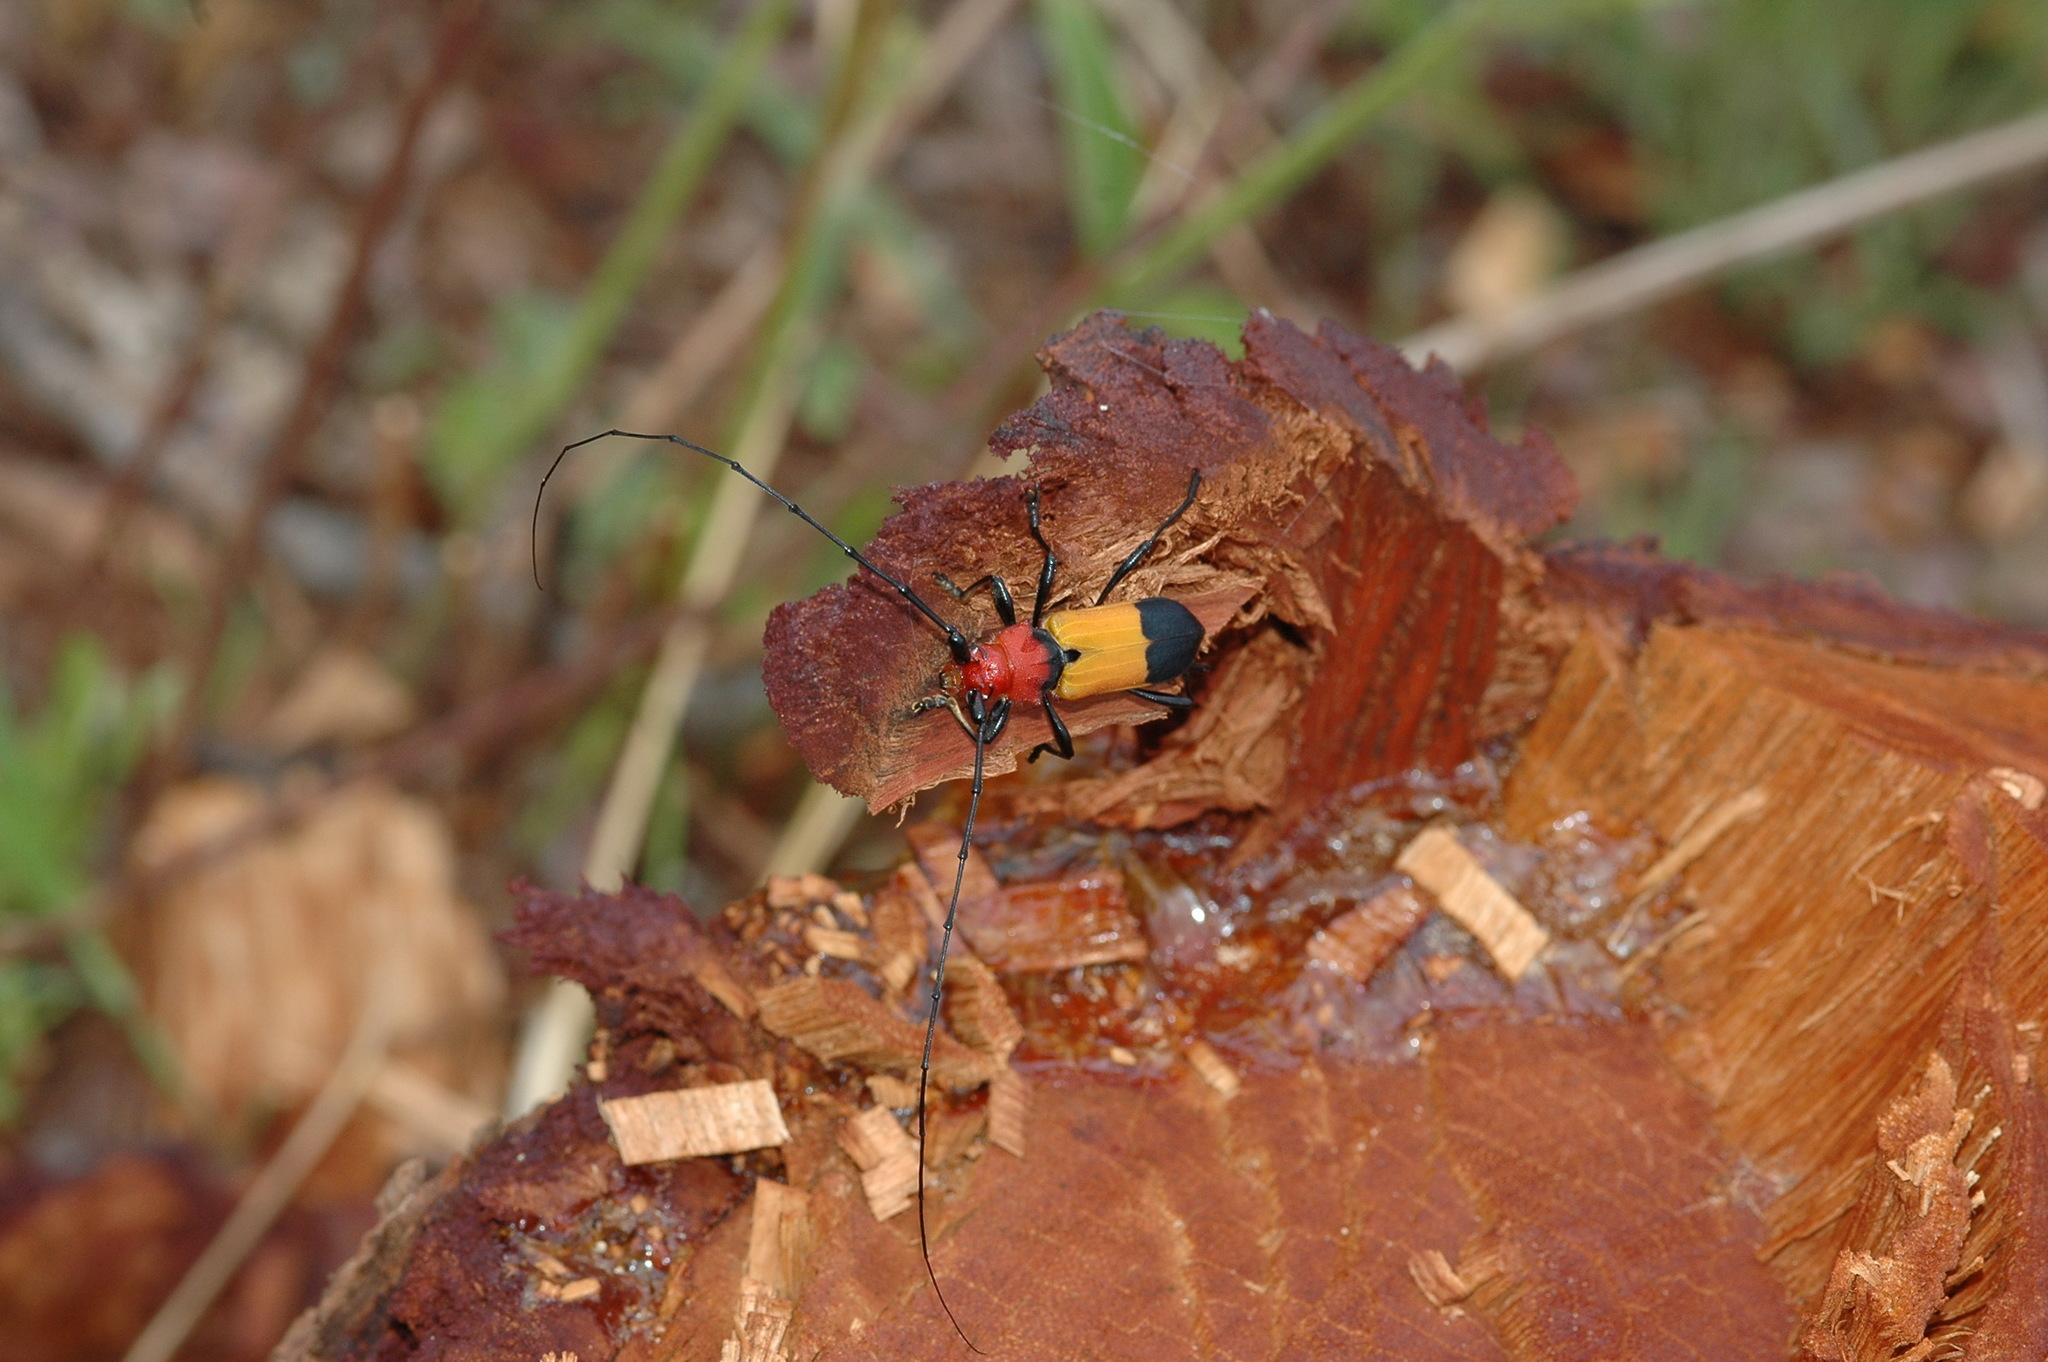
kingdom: Animalia
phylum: Arthropoda
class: Insecta
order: Coleoptera
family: Cerambycidae
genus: Purpuricenus
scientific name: Purpuricenus laetus
